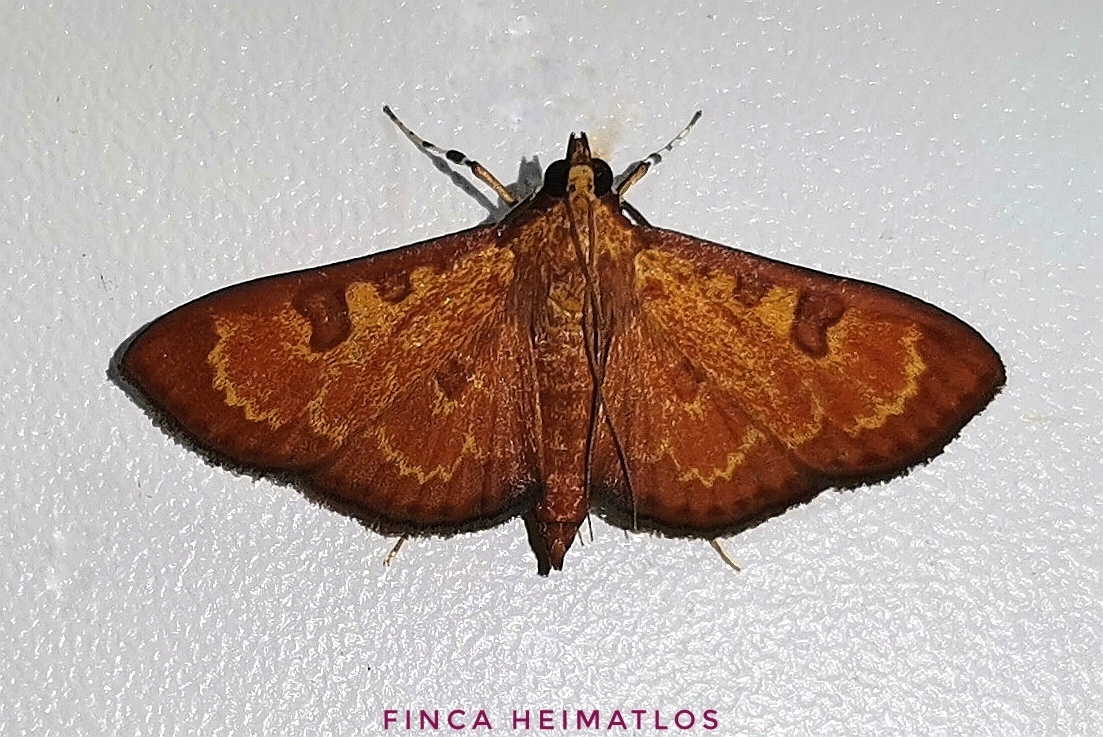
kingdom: Animalia
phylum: Arthropoda
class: Insecta
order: Lepidoptera
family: Crambidae
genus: Trithyris
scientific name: Trithyris
